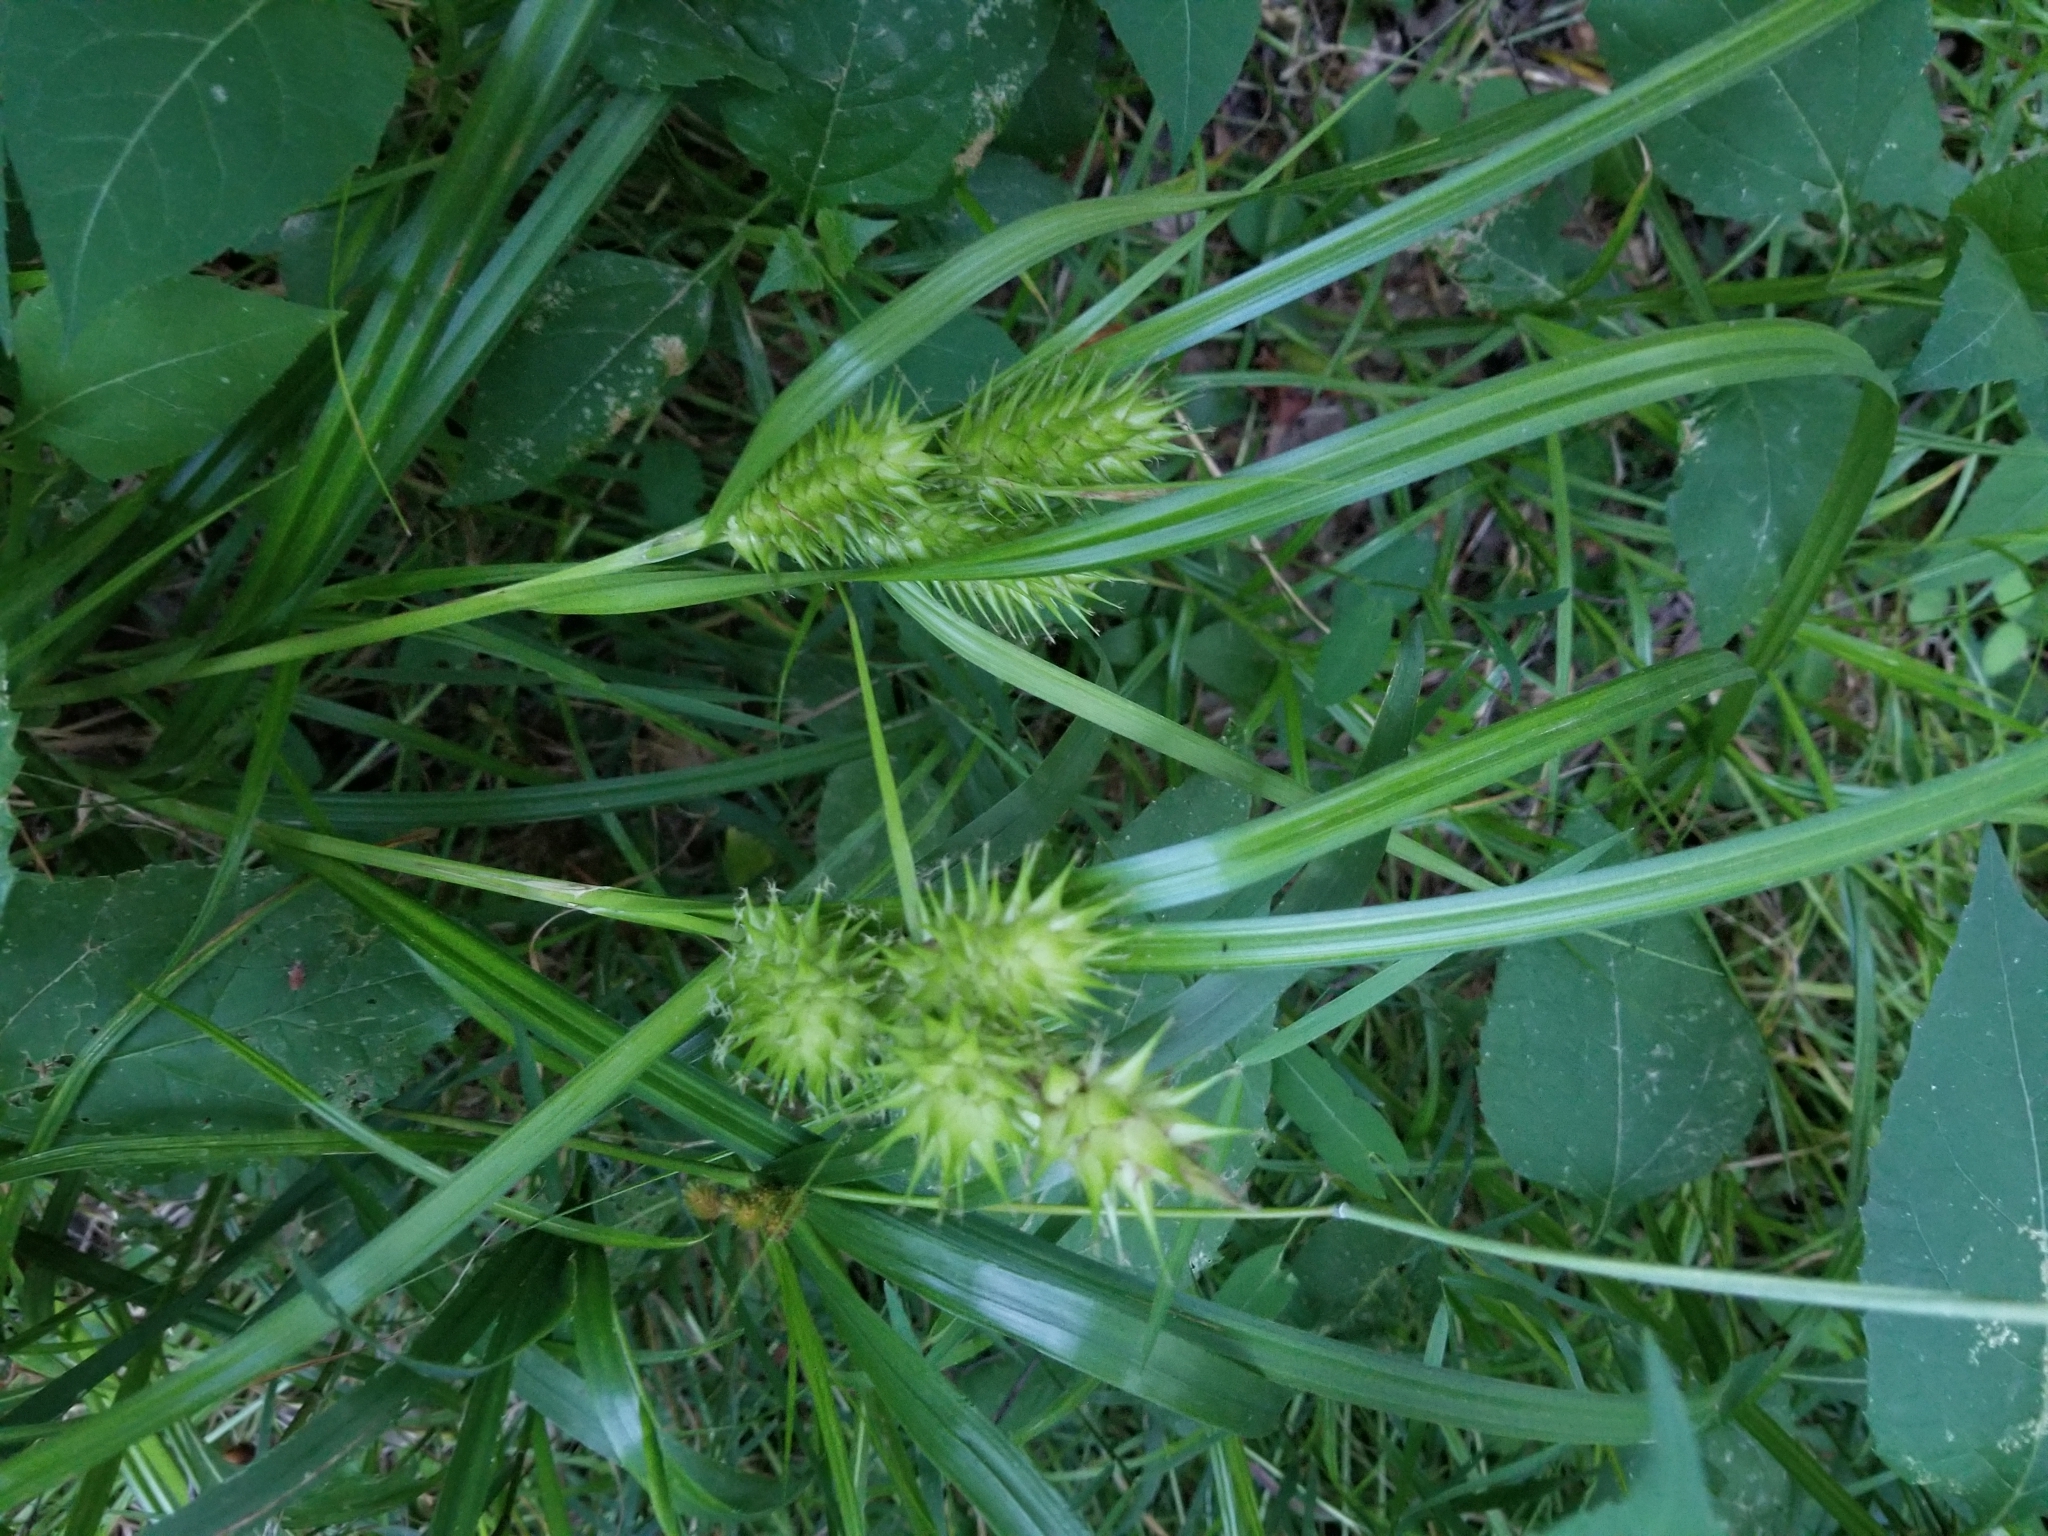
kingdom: Plantae
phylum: Tracheophyta
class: Liliopsida
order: Poales
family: Cyperaceae
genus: Carex
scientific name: Carex lupulina
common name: Hop sedge
